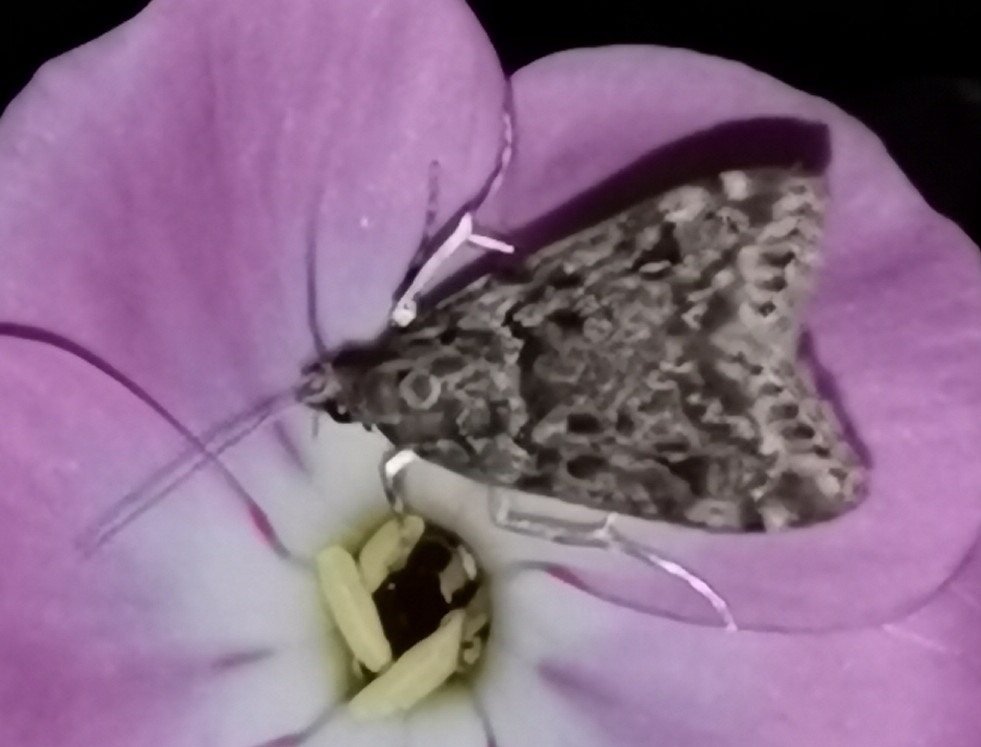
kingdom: Animalia
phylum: Arthropoda
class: Insecta
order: Lepidoptera
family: Crambidae
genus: Eudonia
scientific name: Eudonia truncicolella
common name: Ground-moss grey
